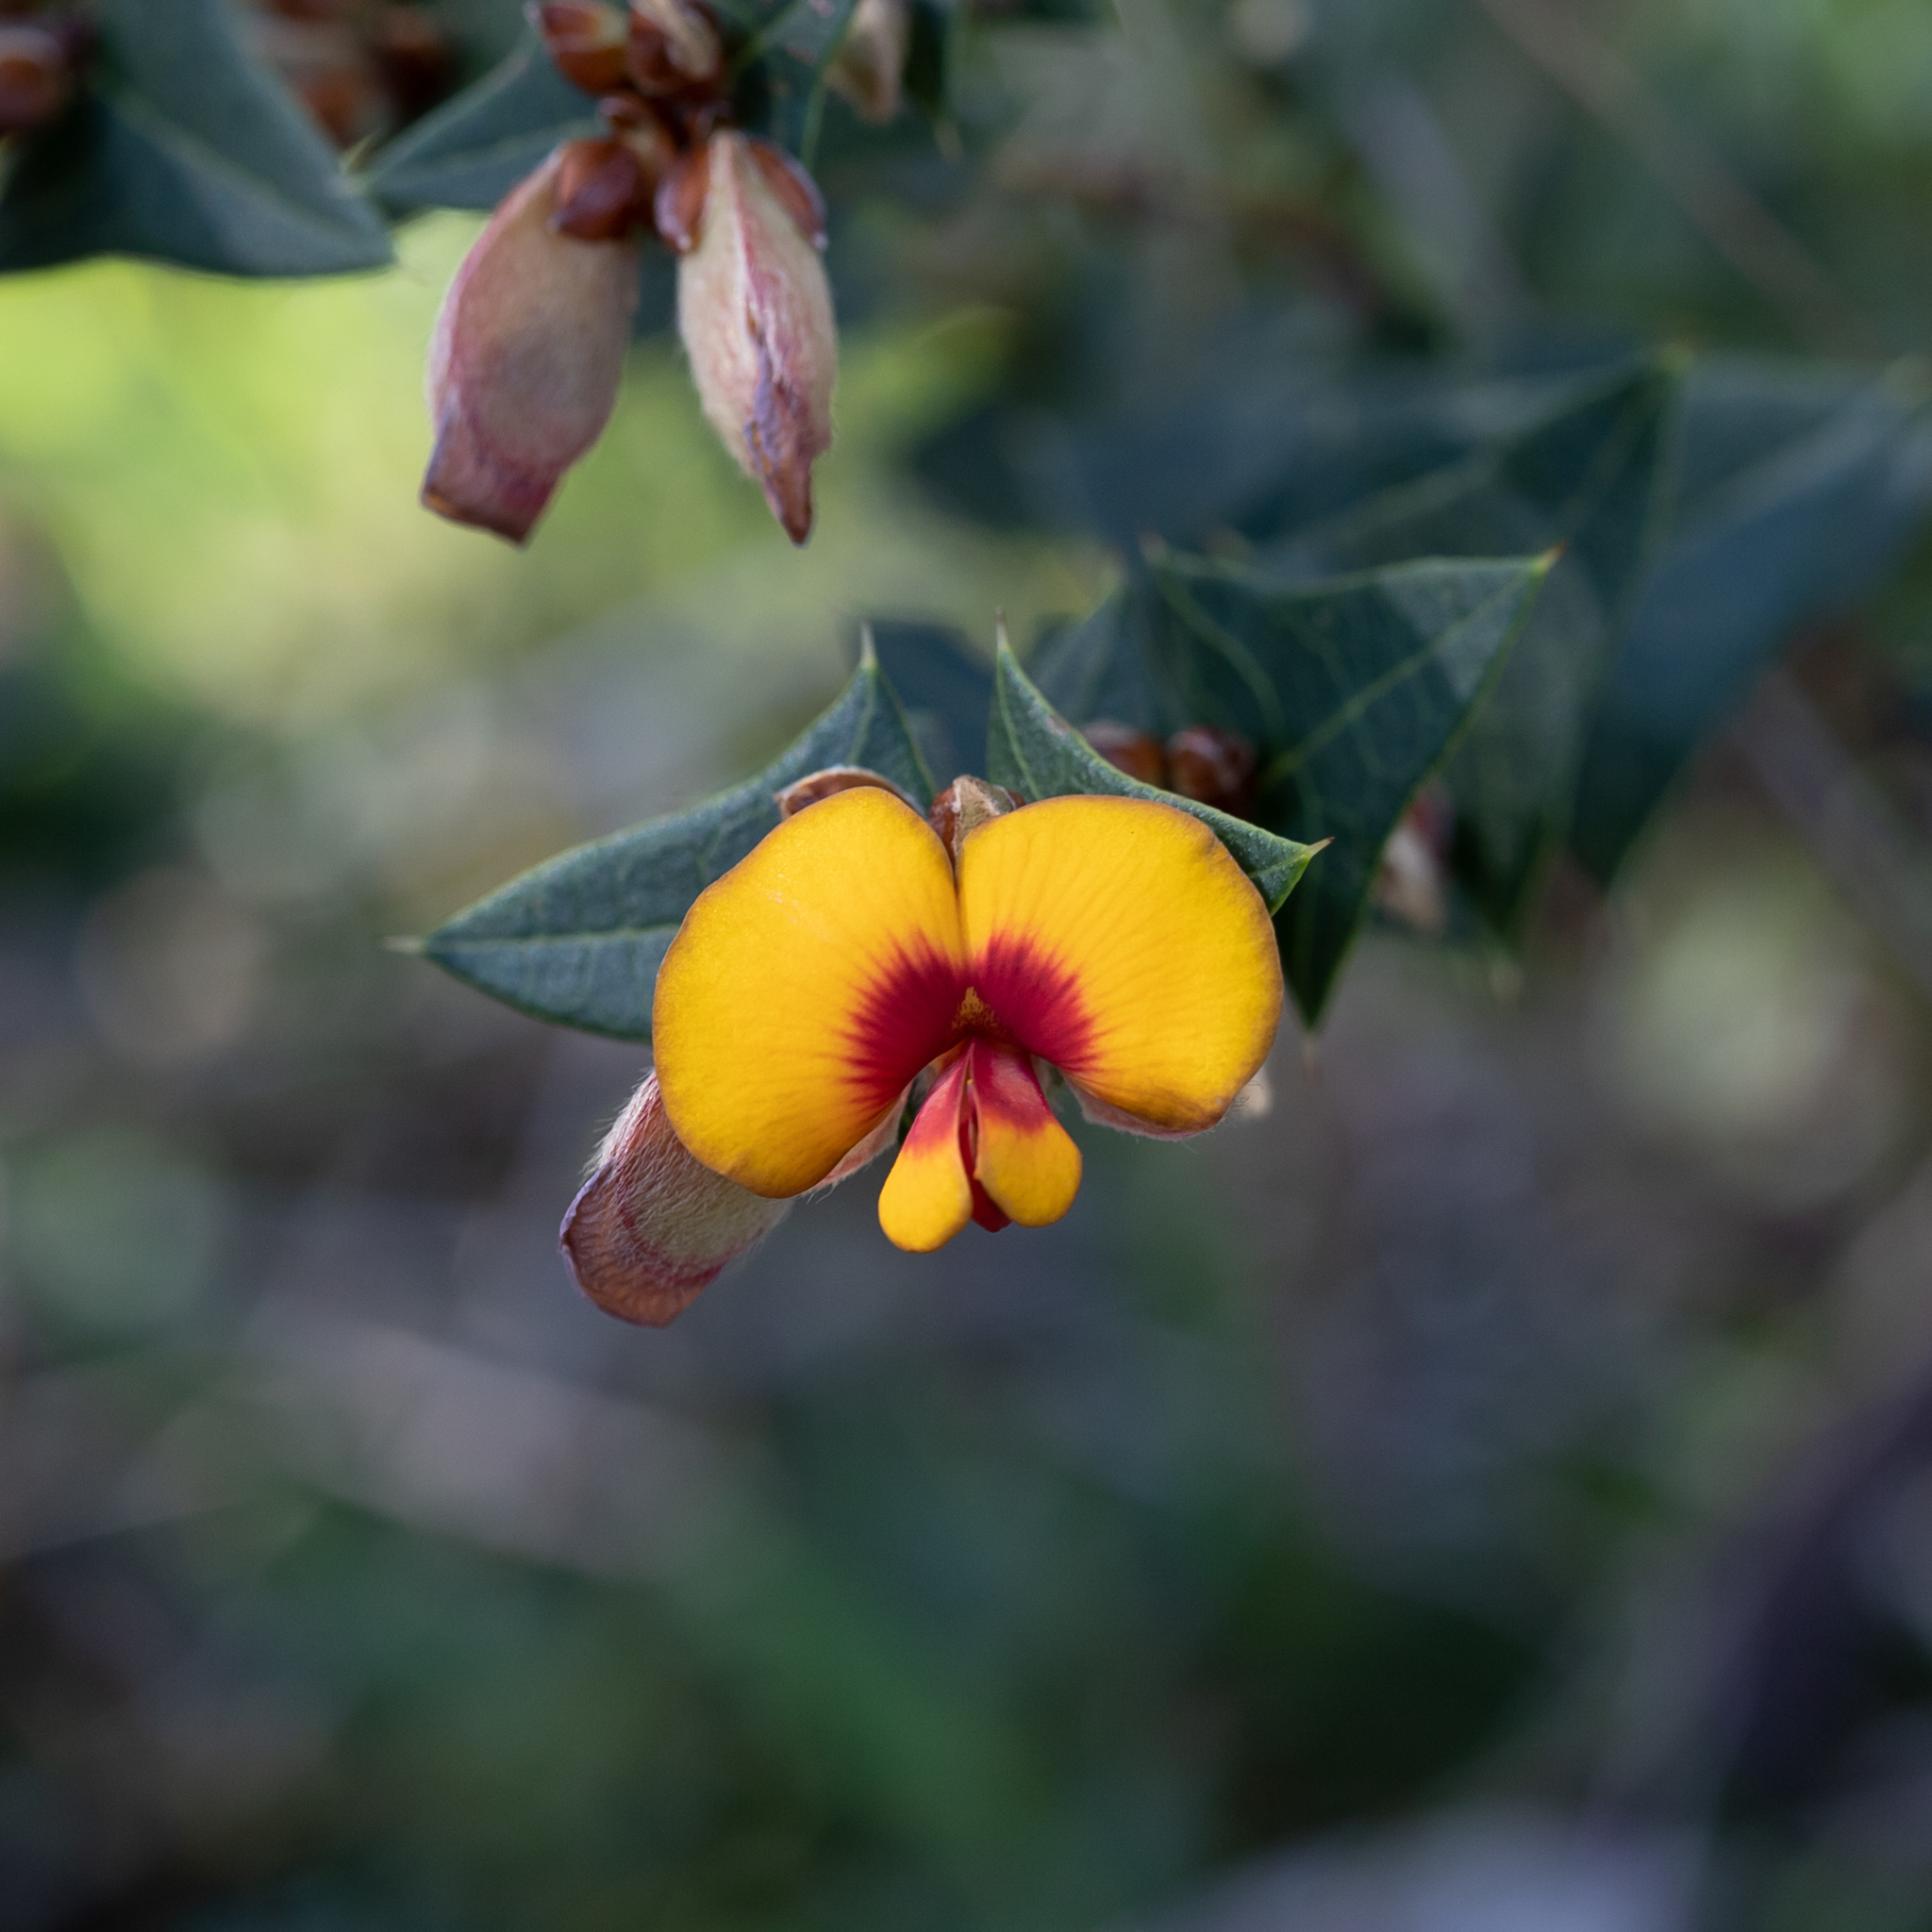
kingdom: Plantae
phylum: Tracheophyta
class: Magnoliopsida
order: Fabales
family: Fabaceae
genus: Platylobium
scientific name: Platylobium obtusangulum
